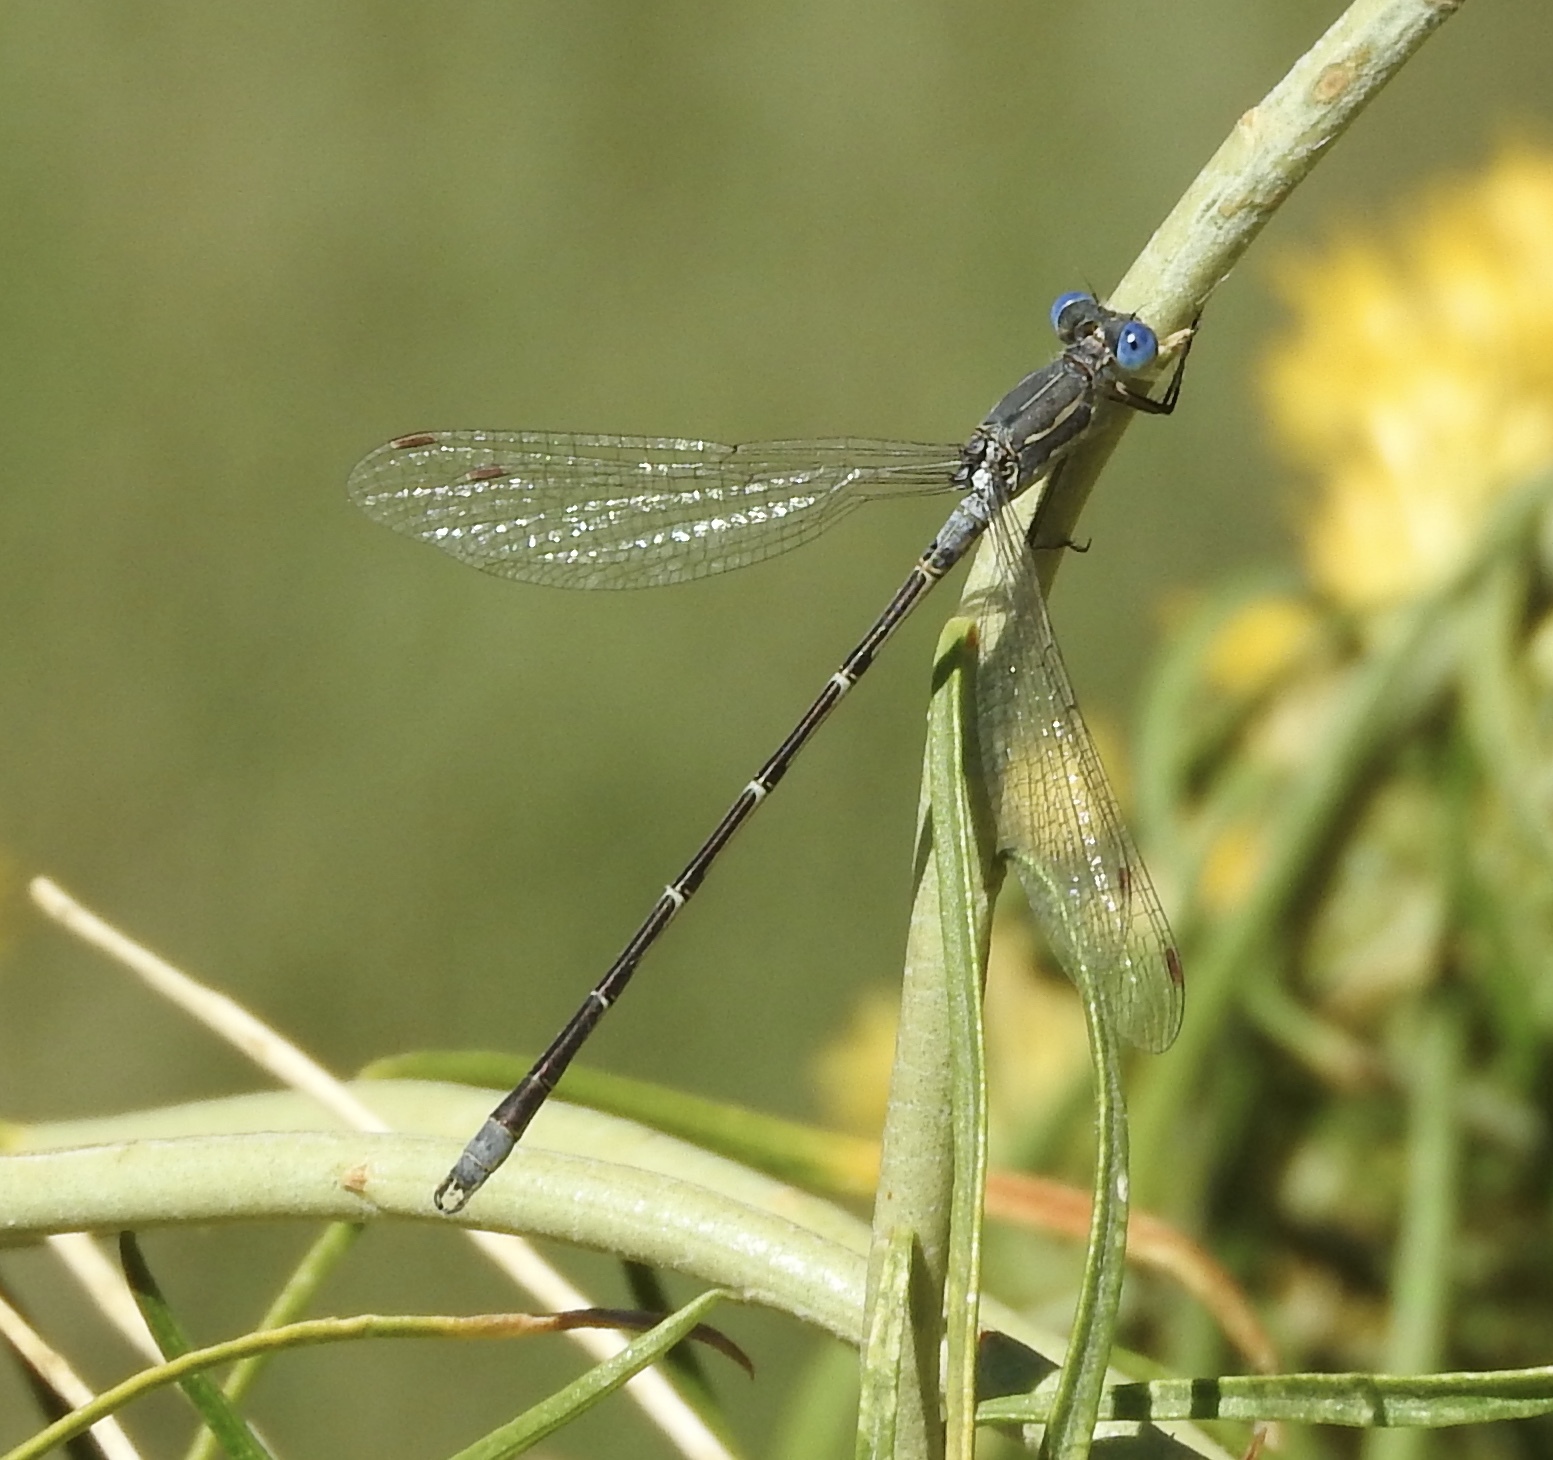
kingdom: Animalia
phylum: Arthropoda
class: Insecta
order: Odonata
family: Lestidae
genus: Lestes
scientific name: Lestes congener
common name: Spotted spreadwing
